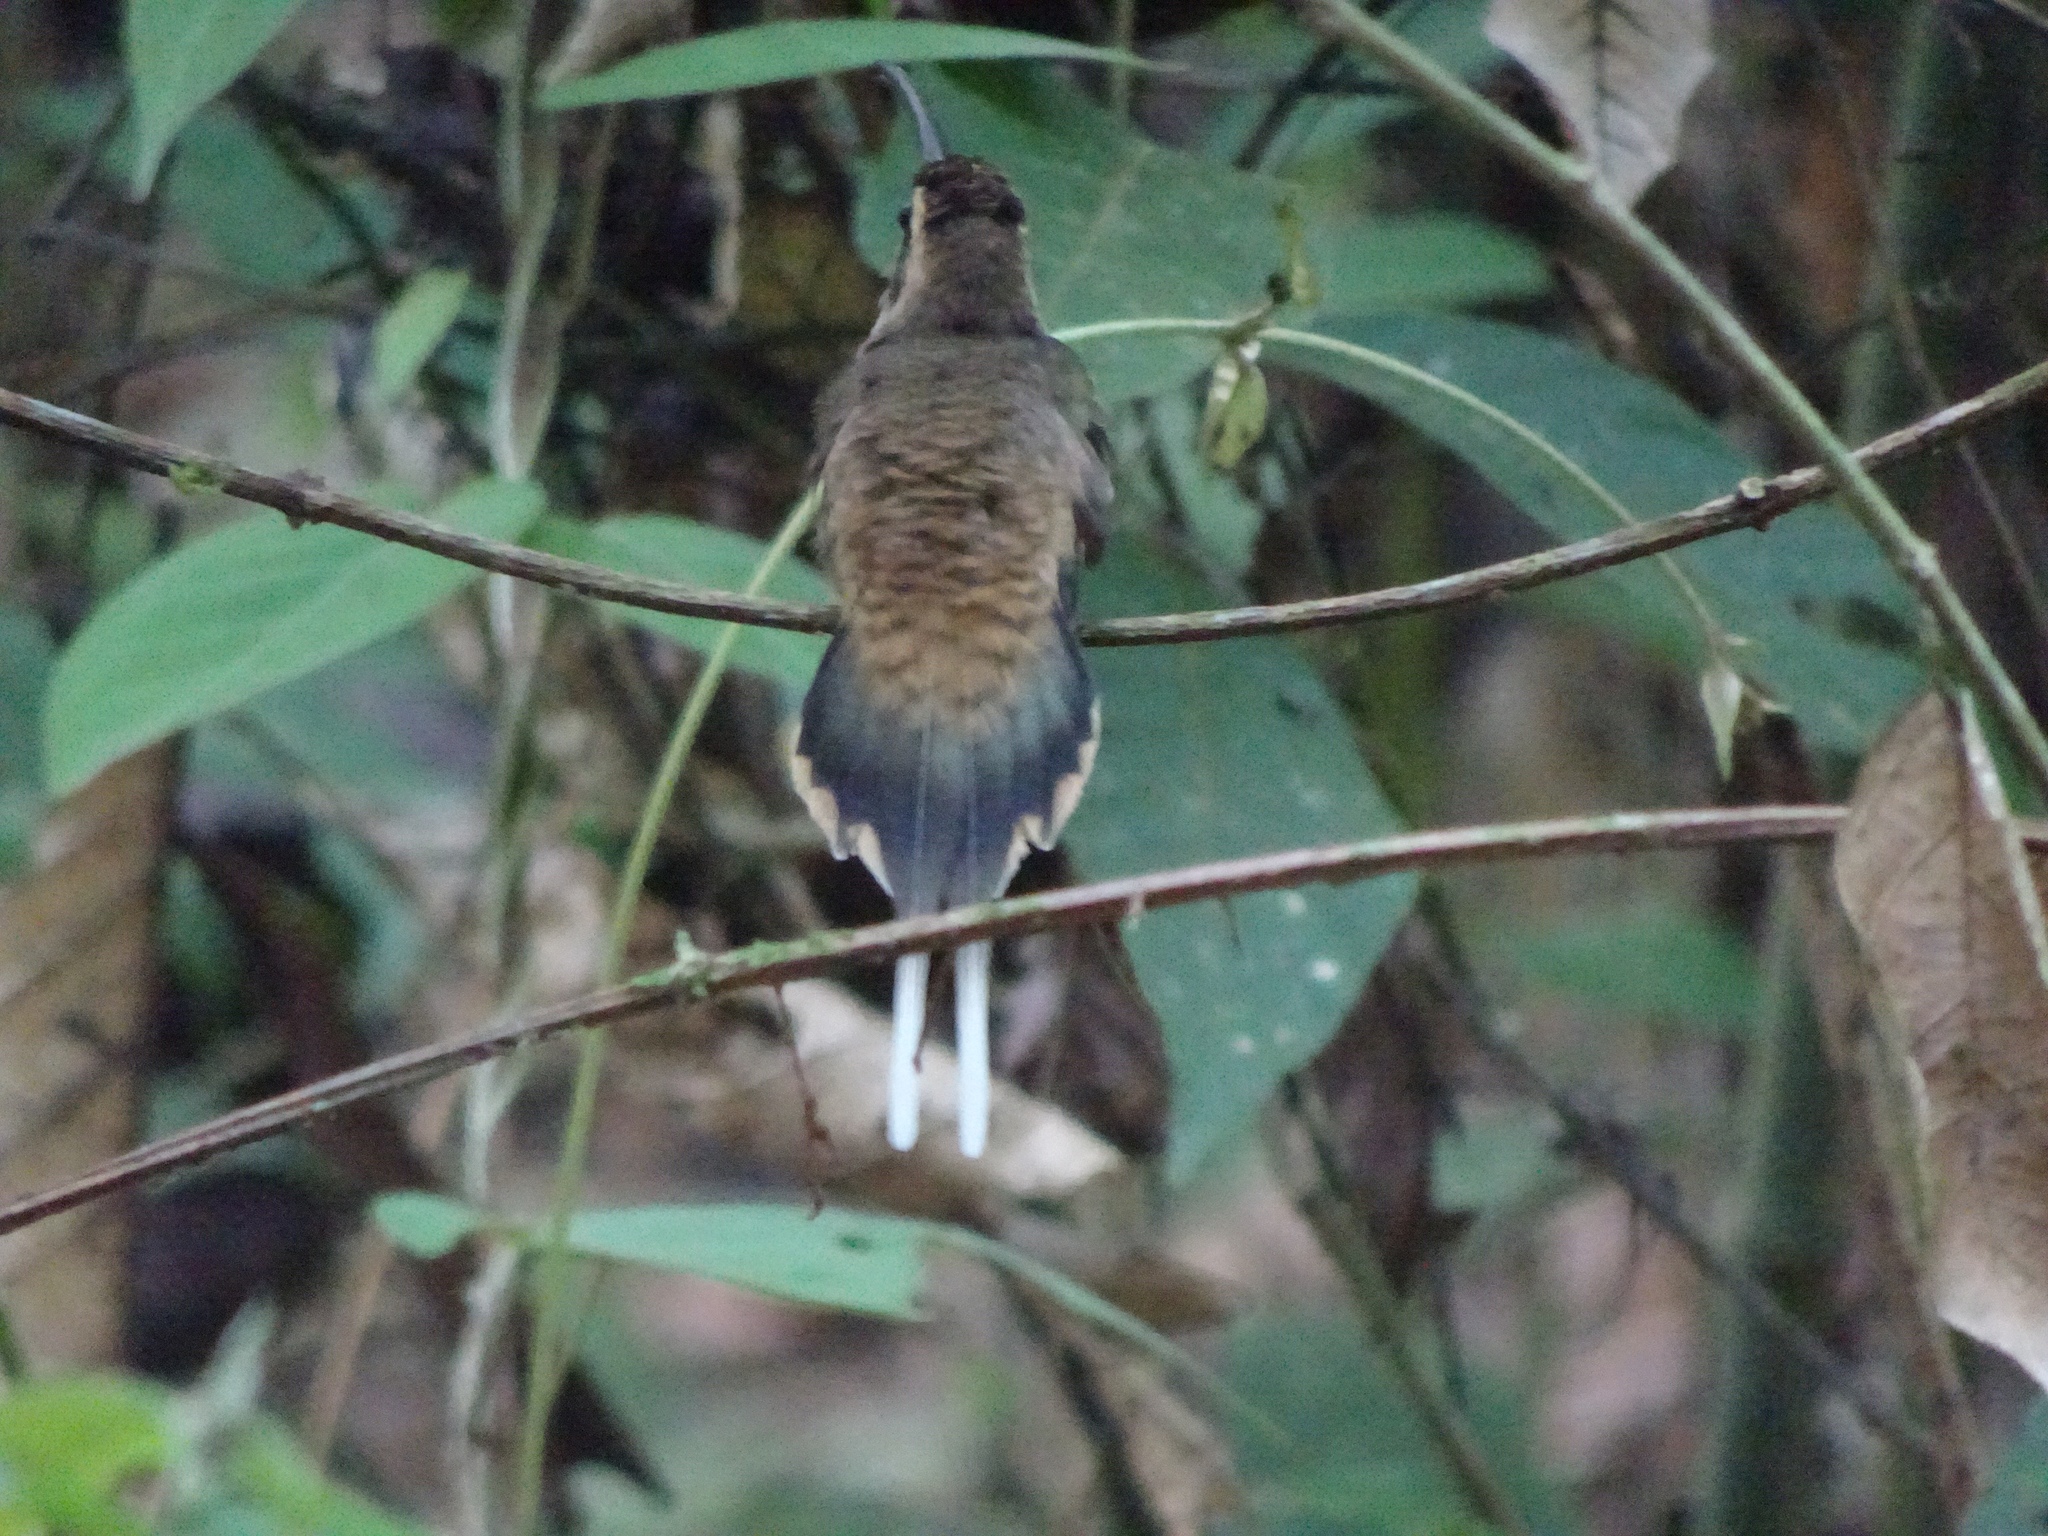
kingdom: Animalia
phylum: Chordata
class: Aves
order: Apodiformes
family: Trochilidae
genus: Phaethornis
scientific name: Phaethornis longirostris
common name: Long-billed hermit
